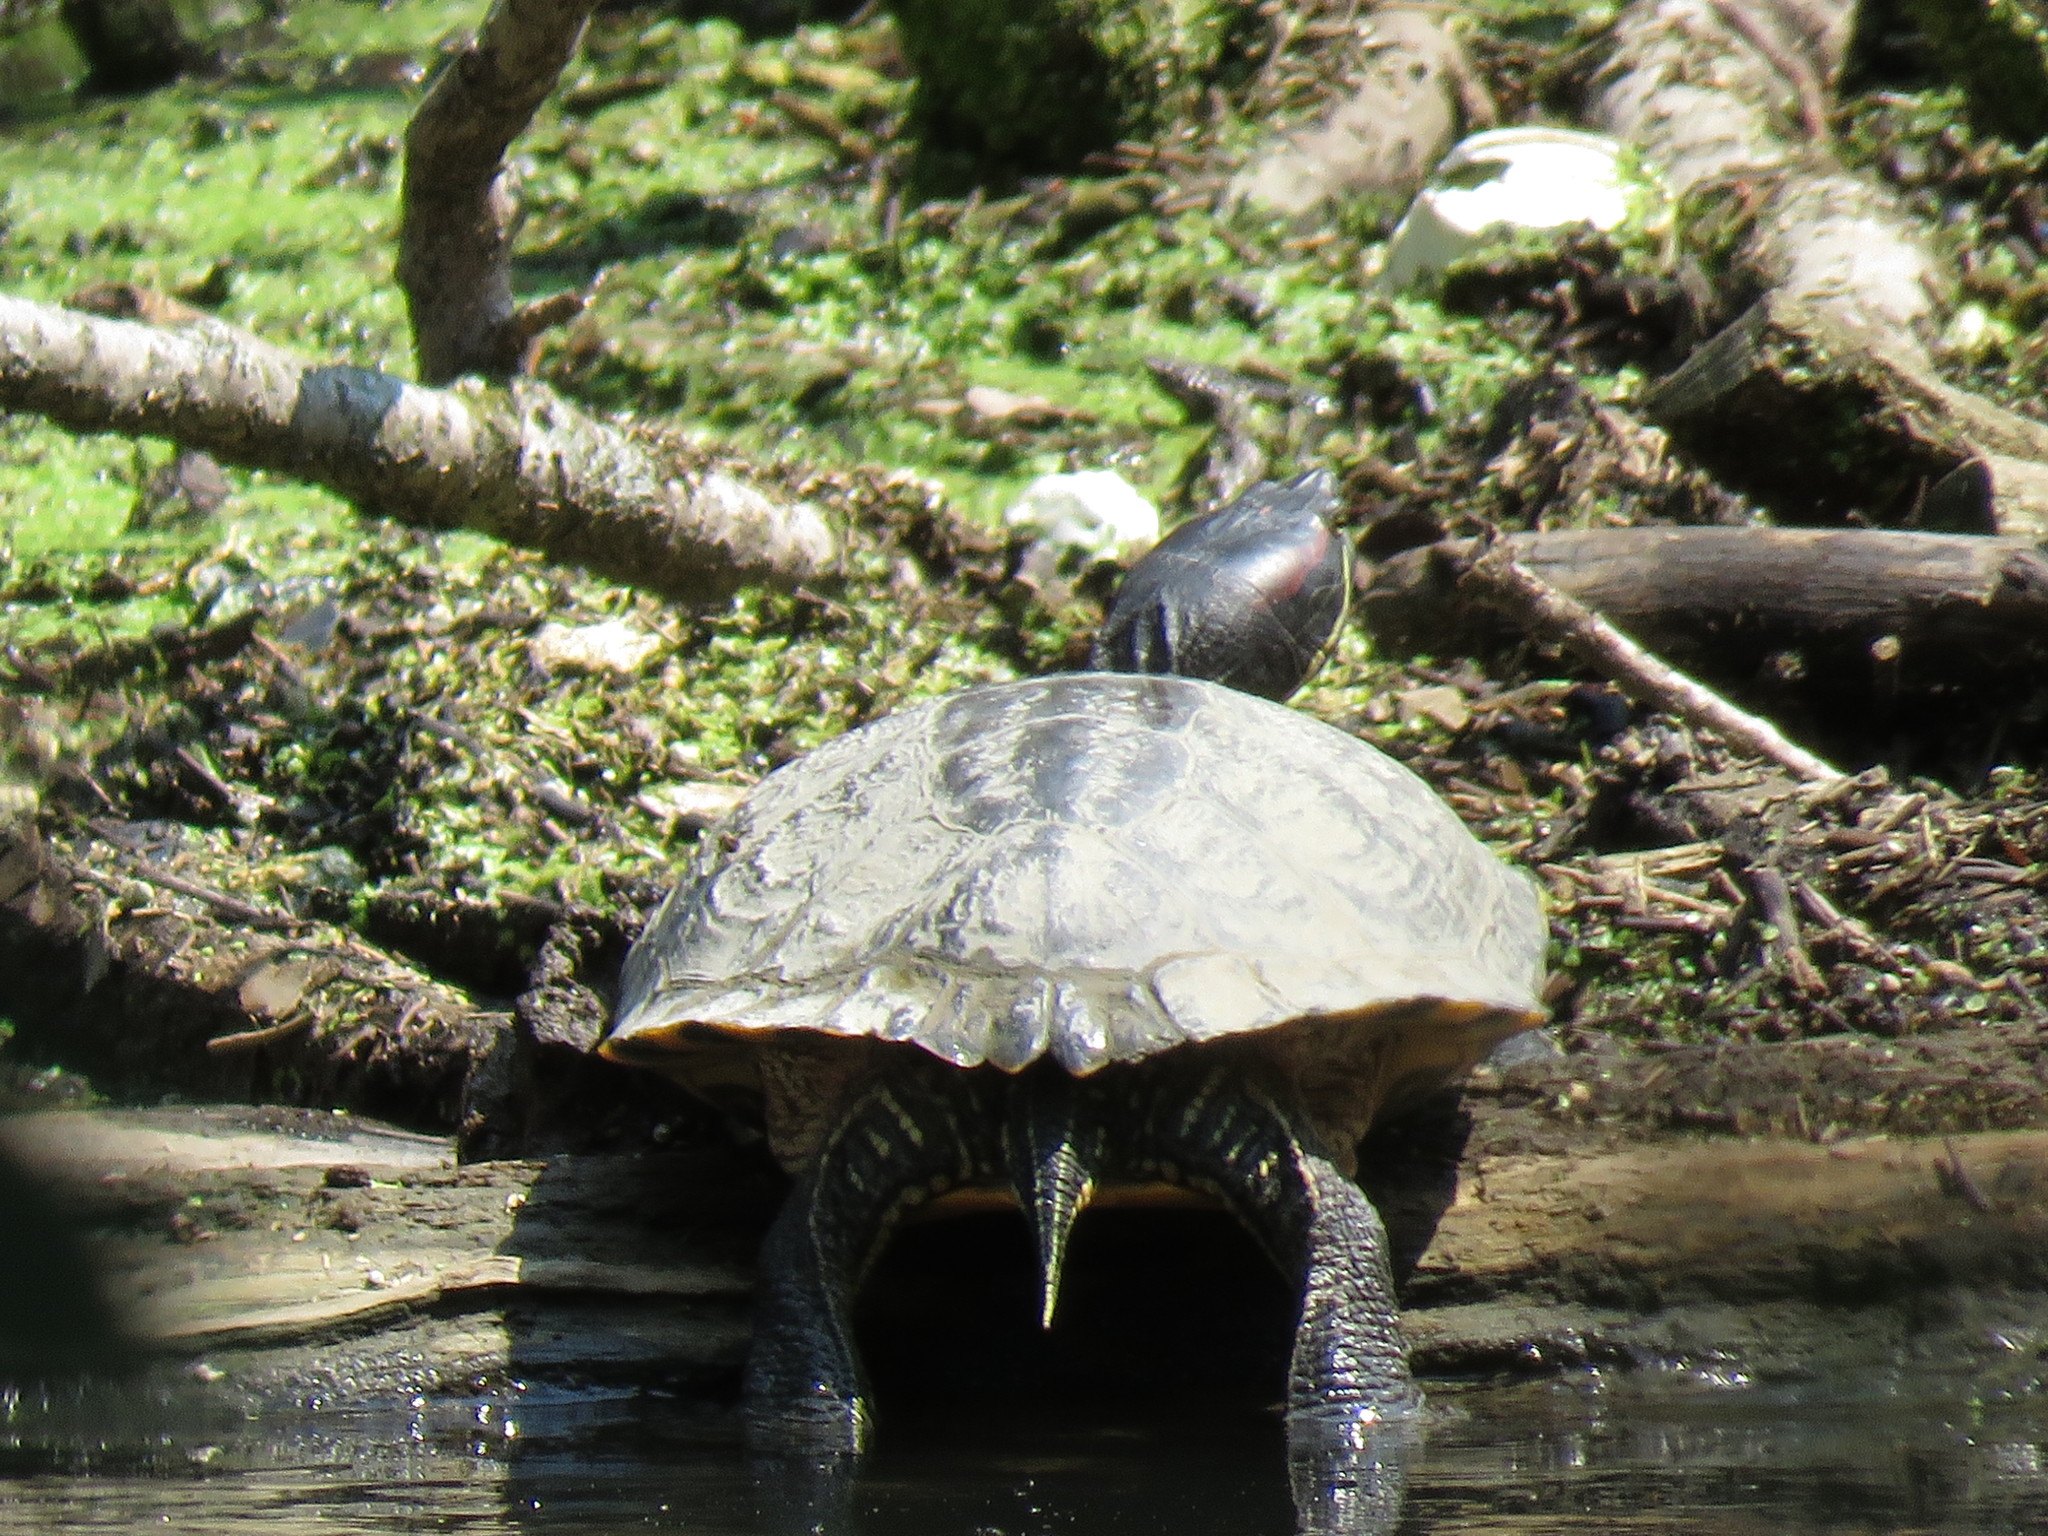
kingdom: Animalia
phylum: Chordata
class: Testudines
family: Emydidae
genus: Trachemys
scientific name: Trachemys scripta
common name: Slider
